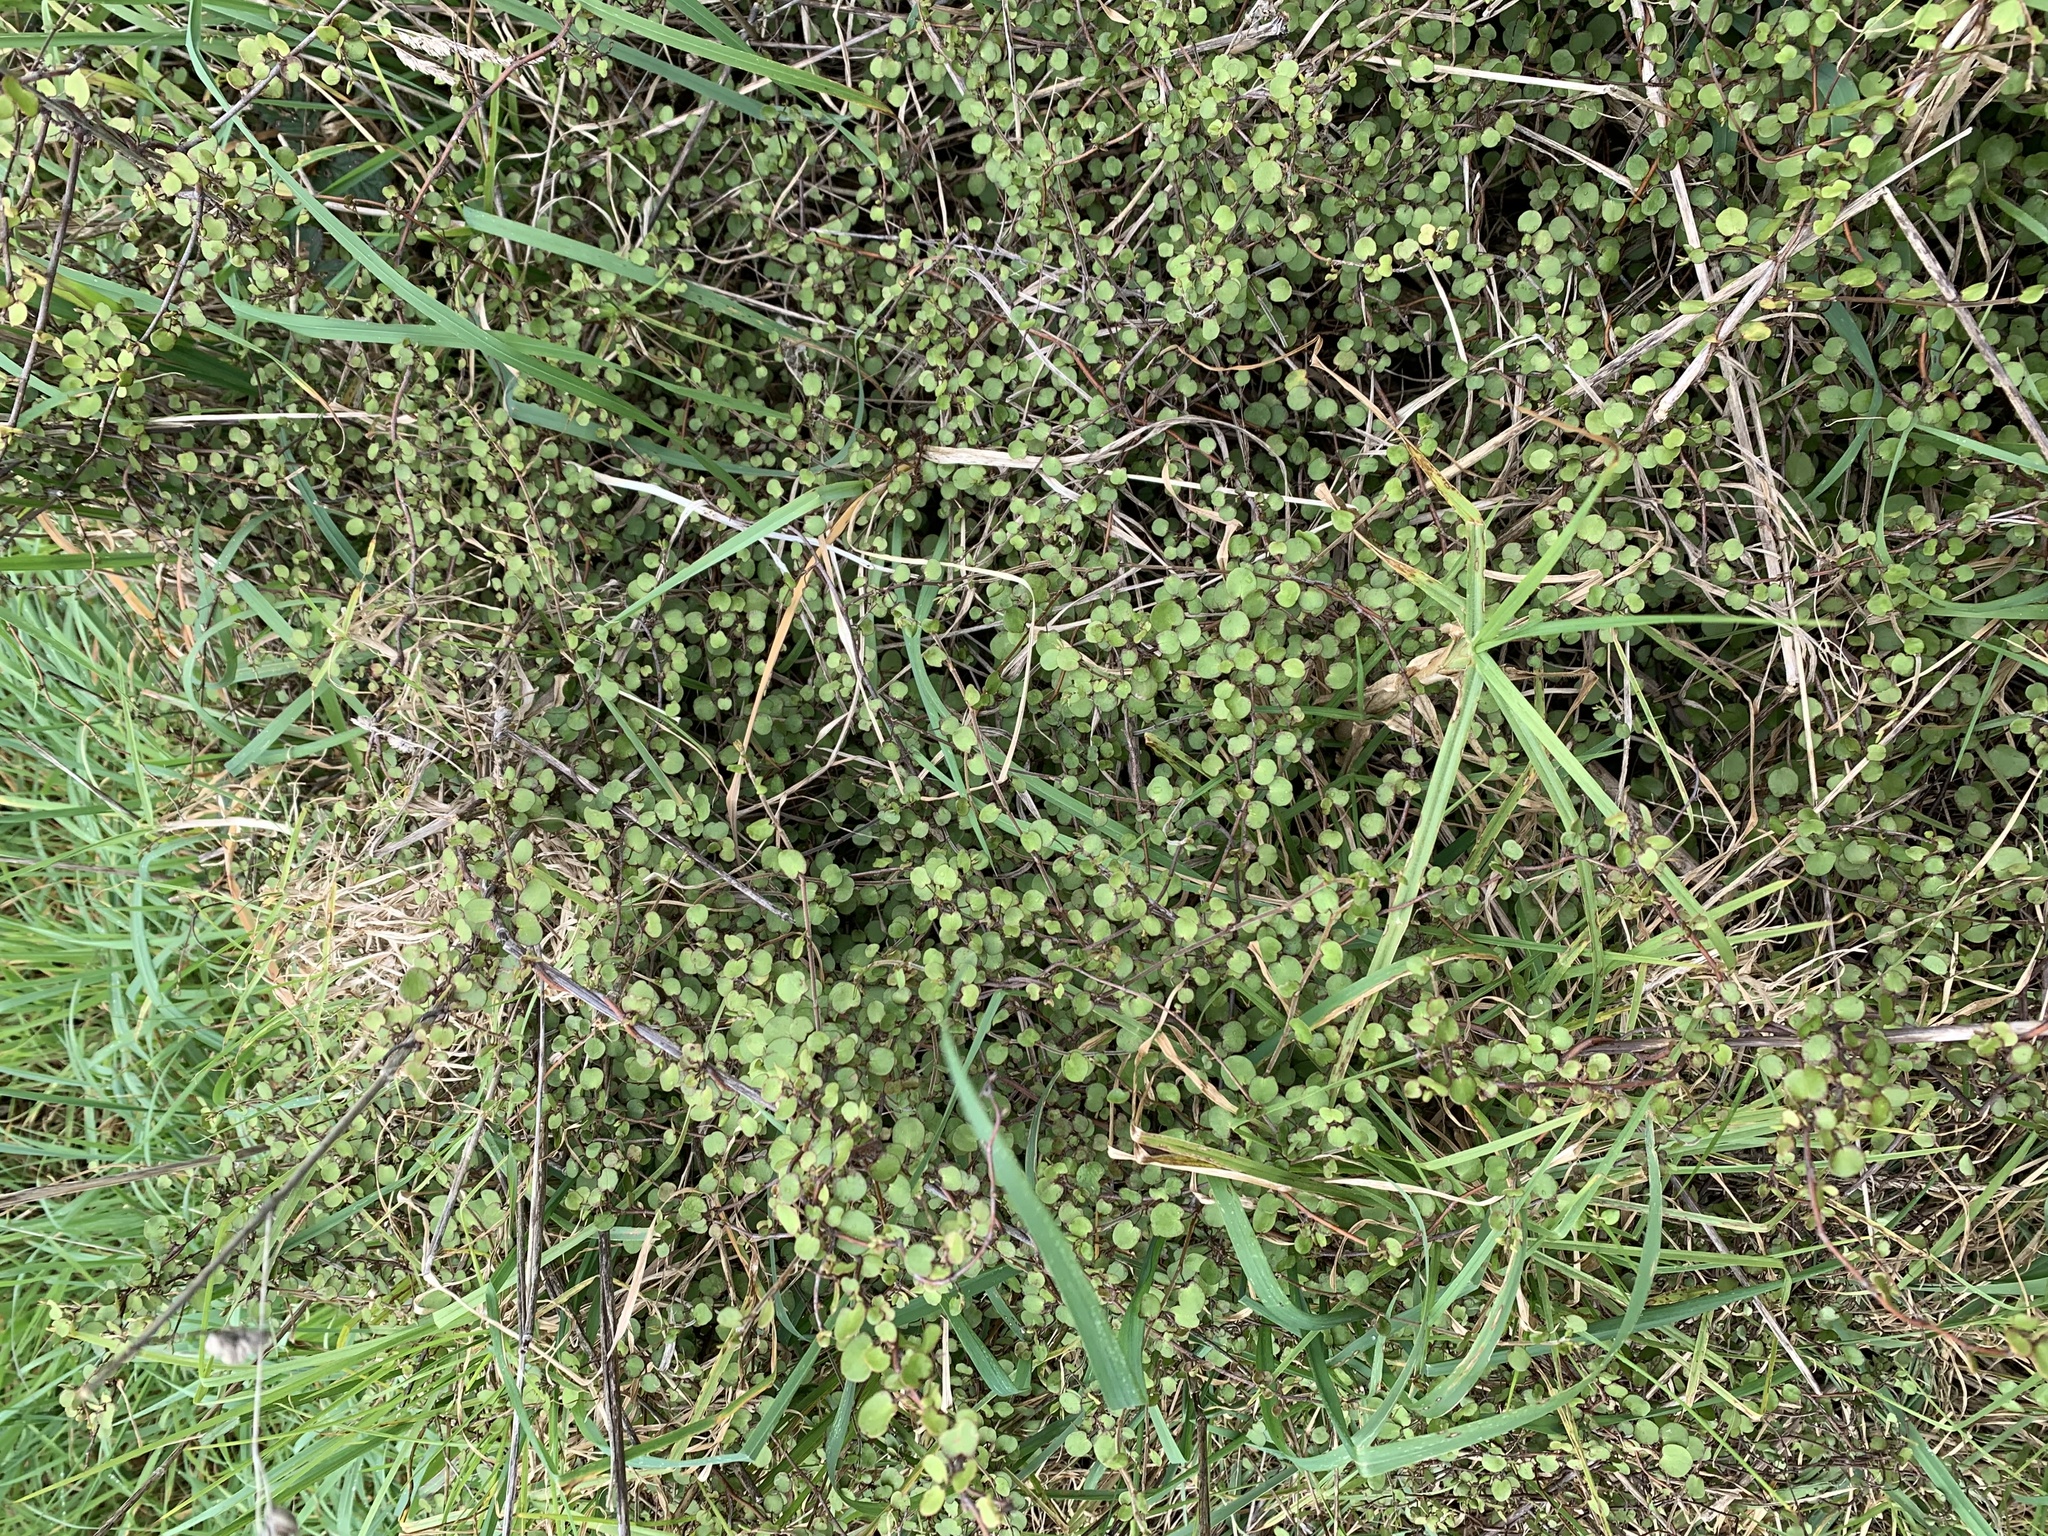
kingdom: Plantae
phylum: Tracheophyta
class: Magnoliopsida
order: Caryophyllales
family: Polygonaceae
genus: Muehlenbeckia
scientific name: Muehlenbeckia complexa
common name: Wireplant
